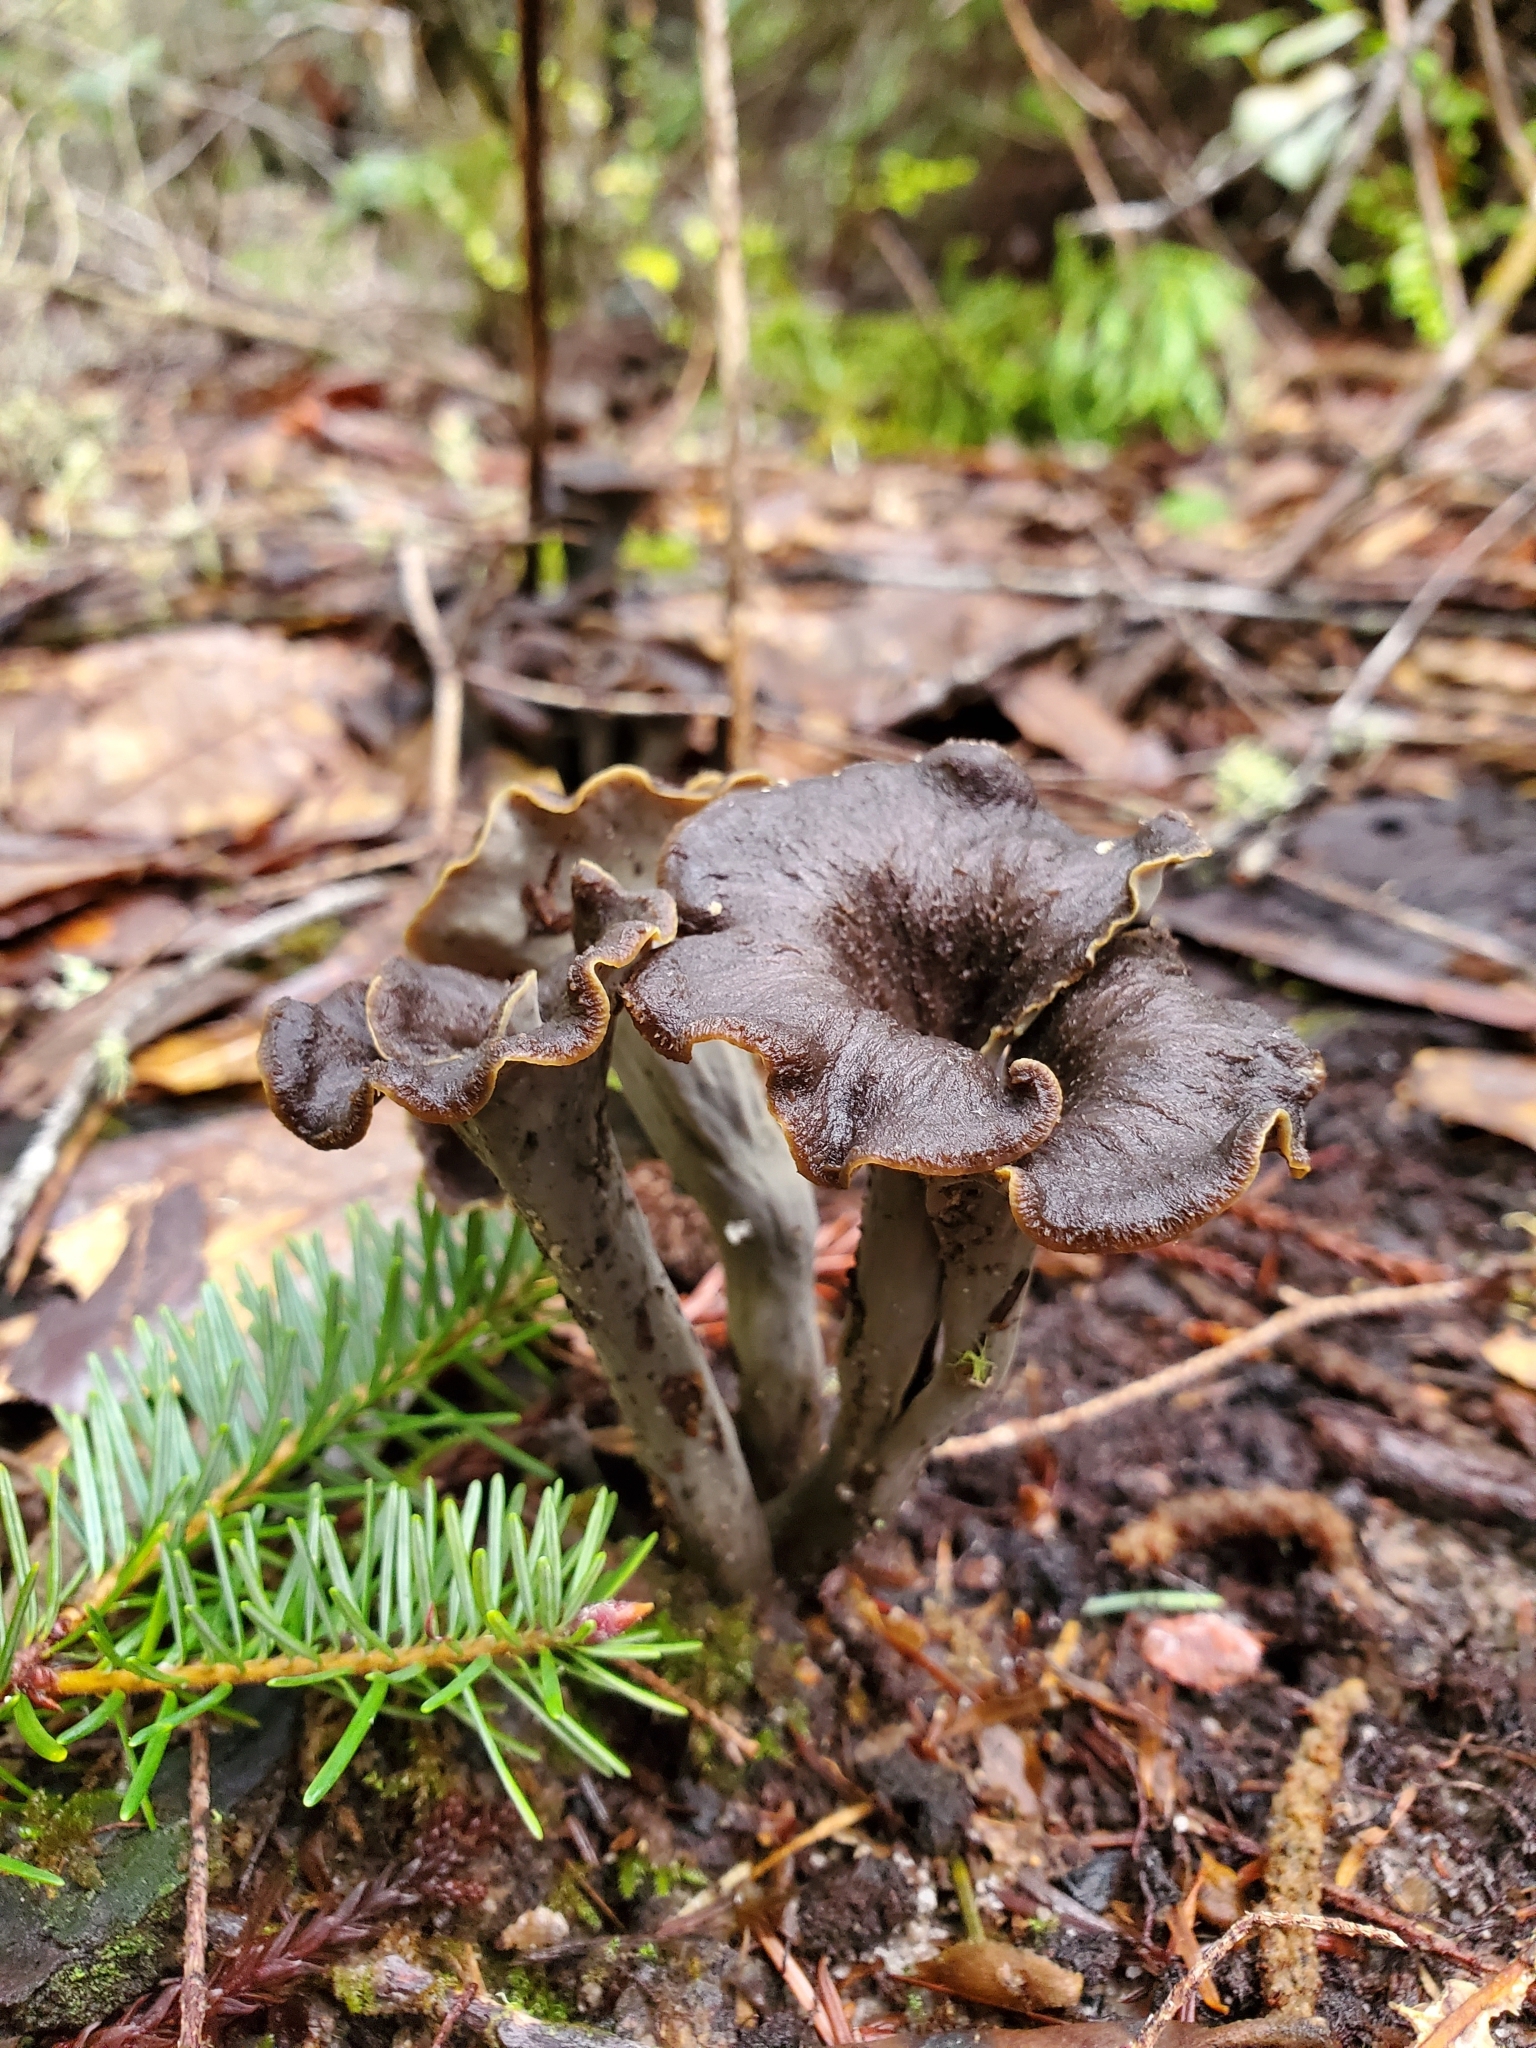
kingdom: Fungi
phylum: Basidiomycota
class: Agaricomycetes
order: Cantharellales
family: Hydnaceae
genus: Craterellus
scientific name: Craterellus calicornucopioides
